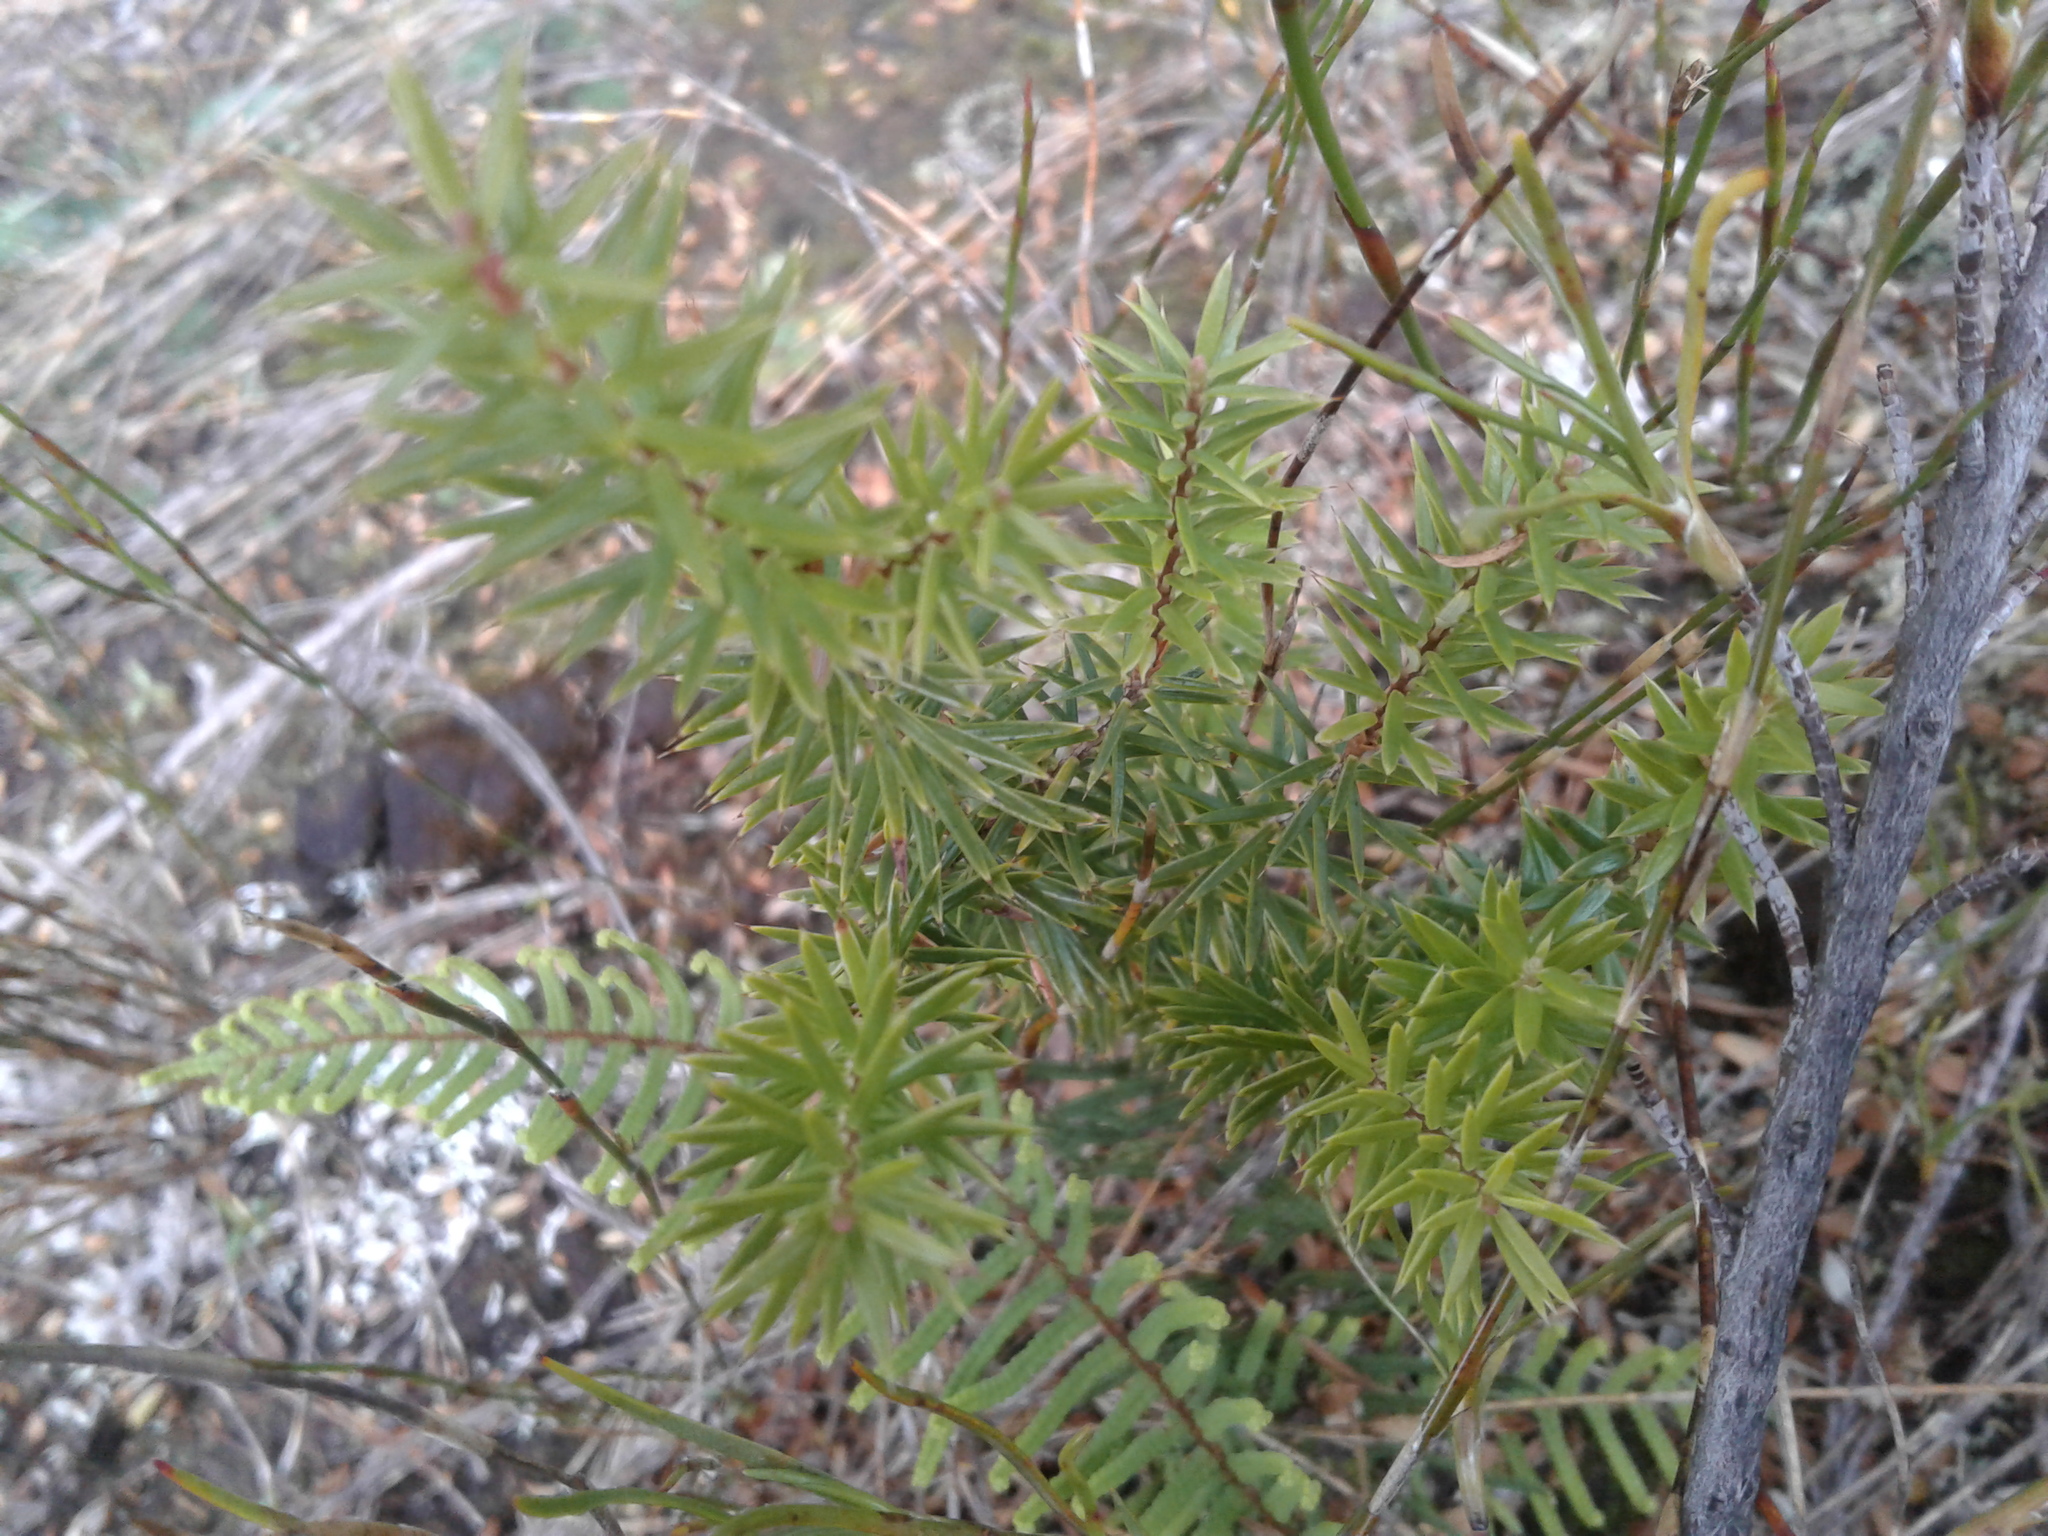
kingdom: Plantae
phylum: Tracheophyta
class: Magnoliopsida
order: Ericales
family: Ericaceae
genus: Leptecophylla
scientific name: Leptecophylla juniperina
